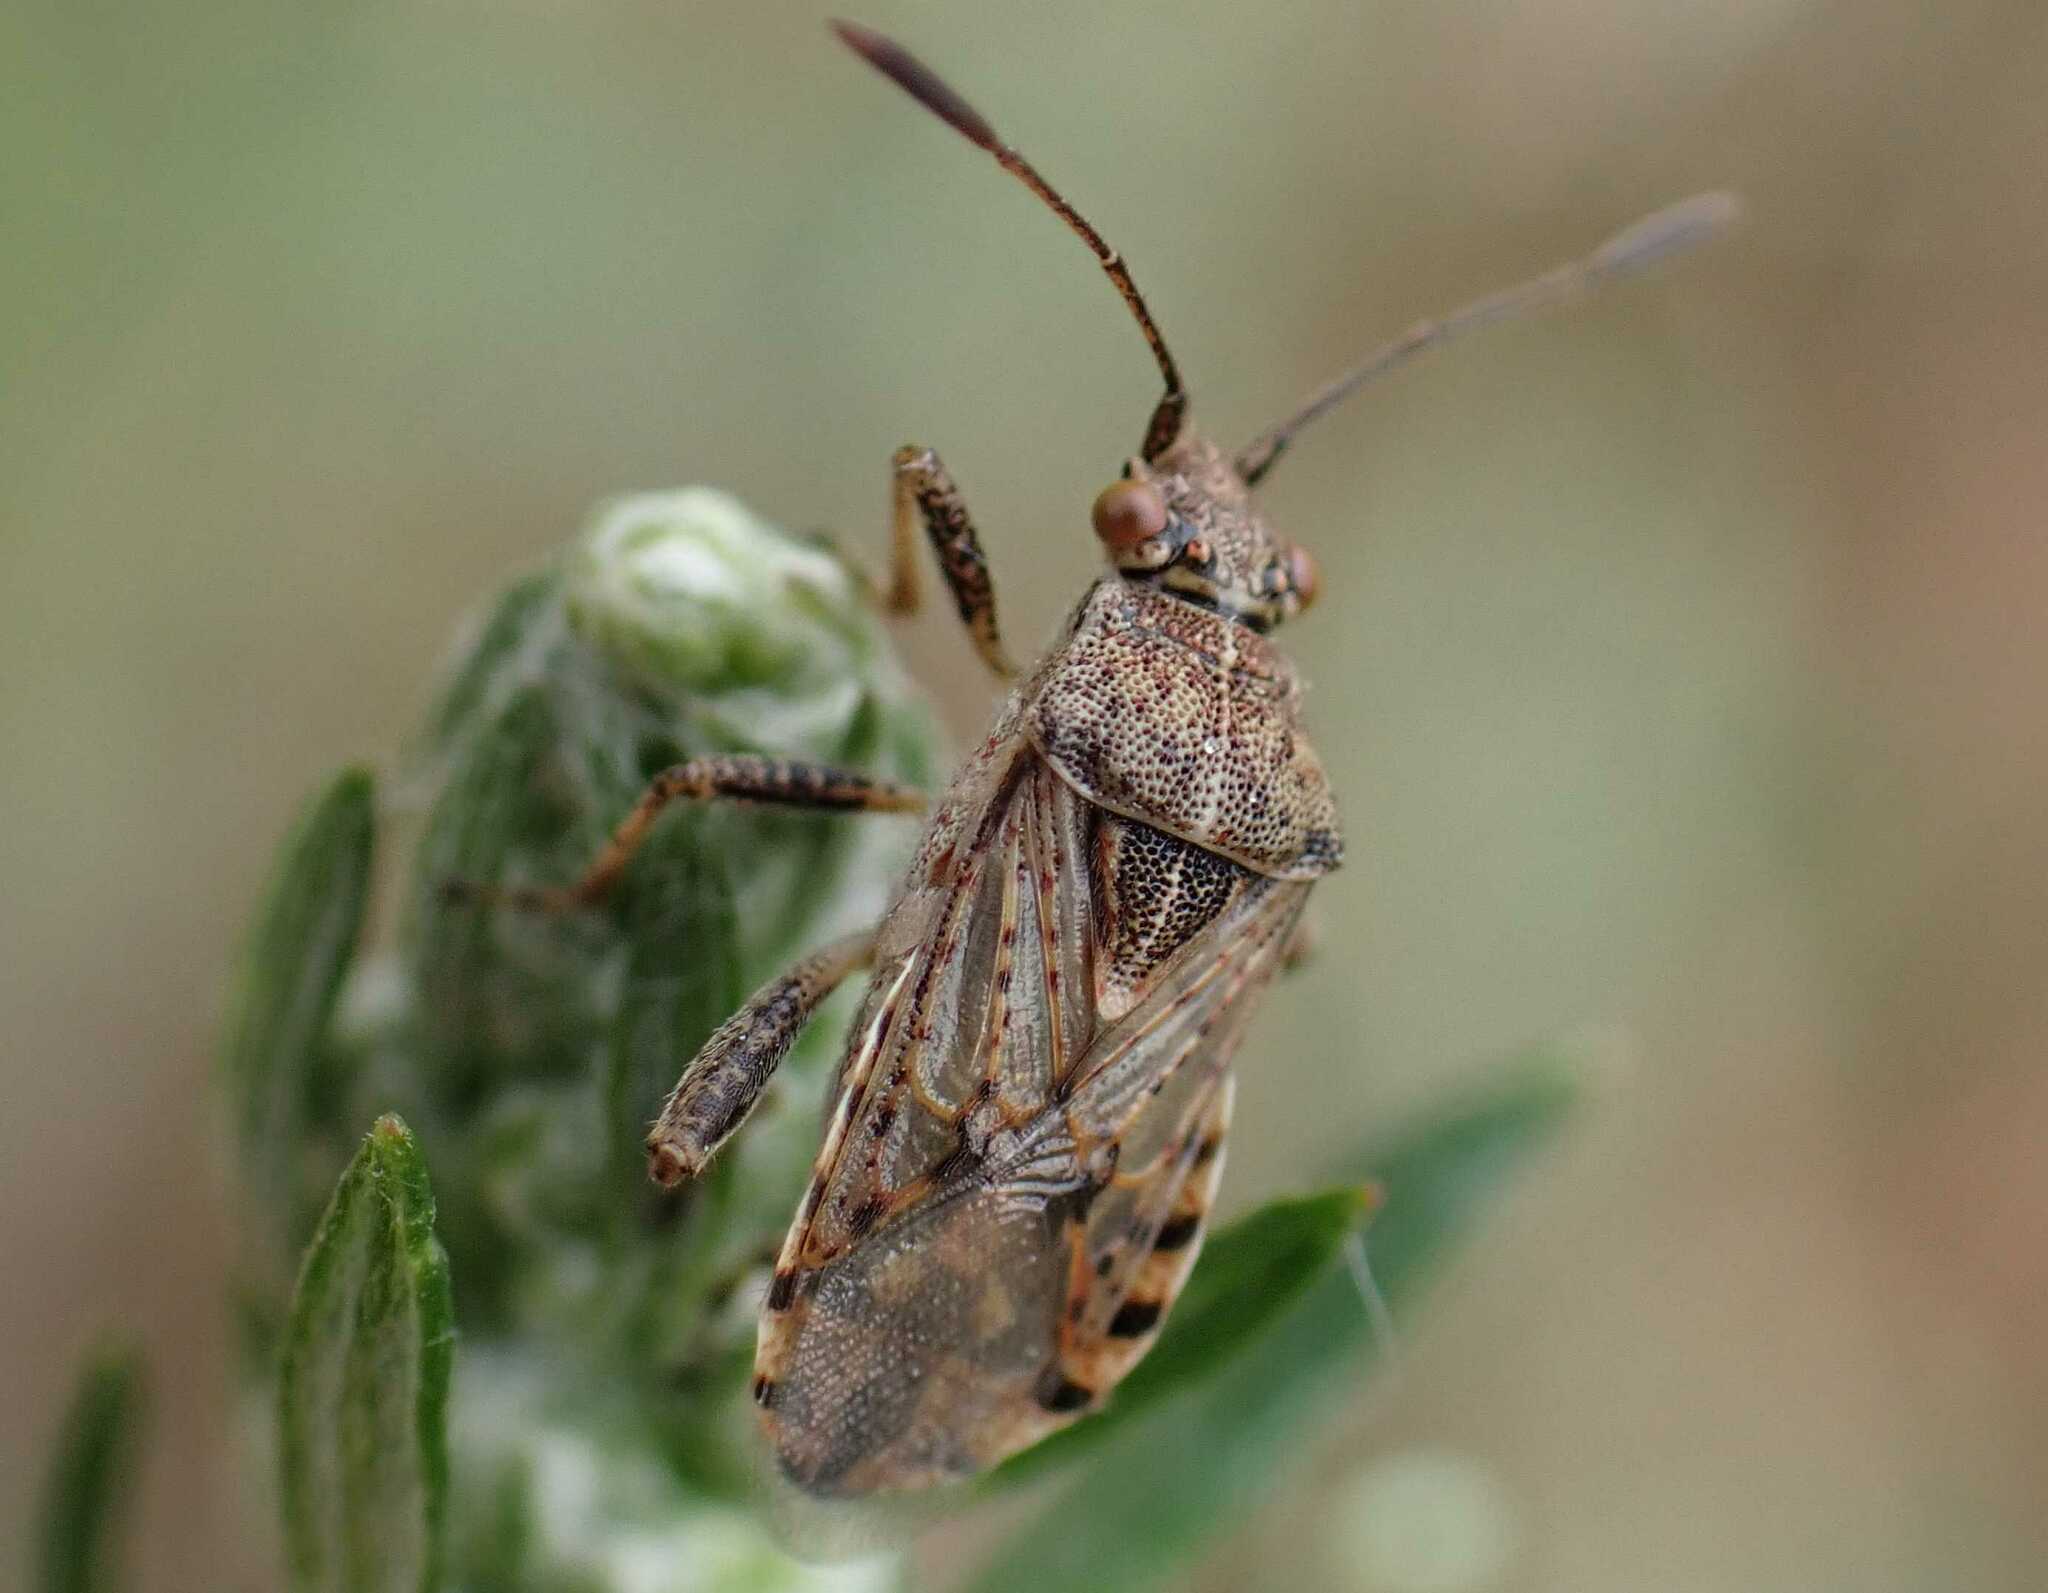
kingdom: Animalia
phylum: Arthropoda
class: Insecta
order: Hemiptera
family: Rhopalidae
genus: Stictopleurus
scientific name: Stictopleurus punctatonervosus
